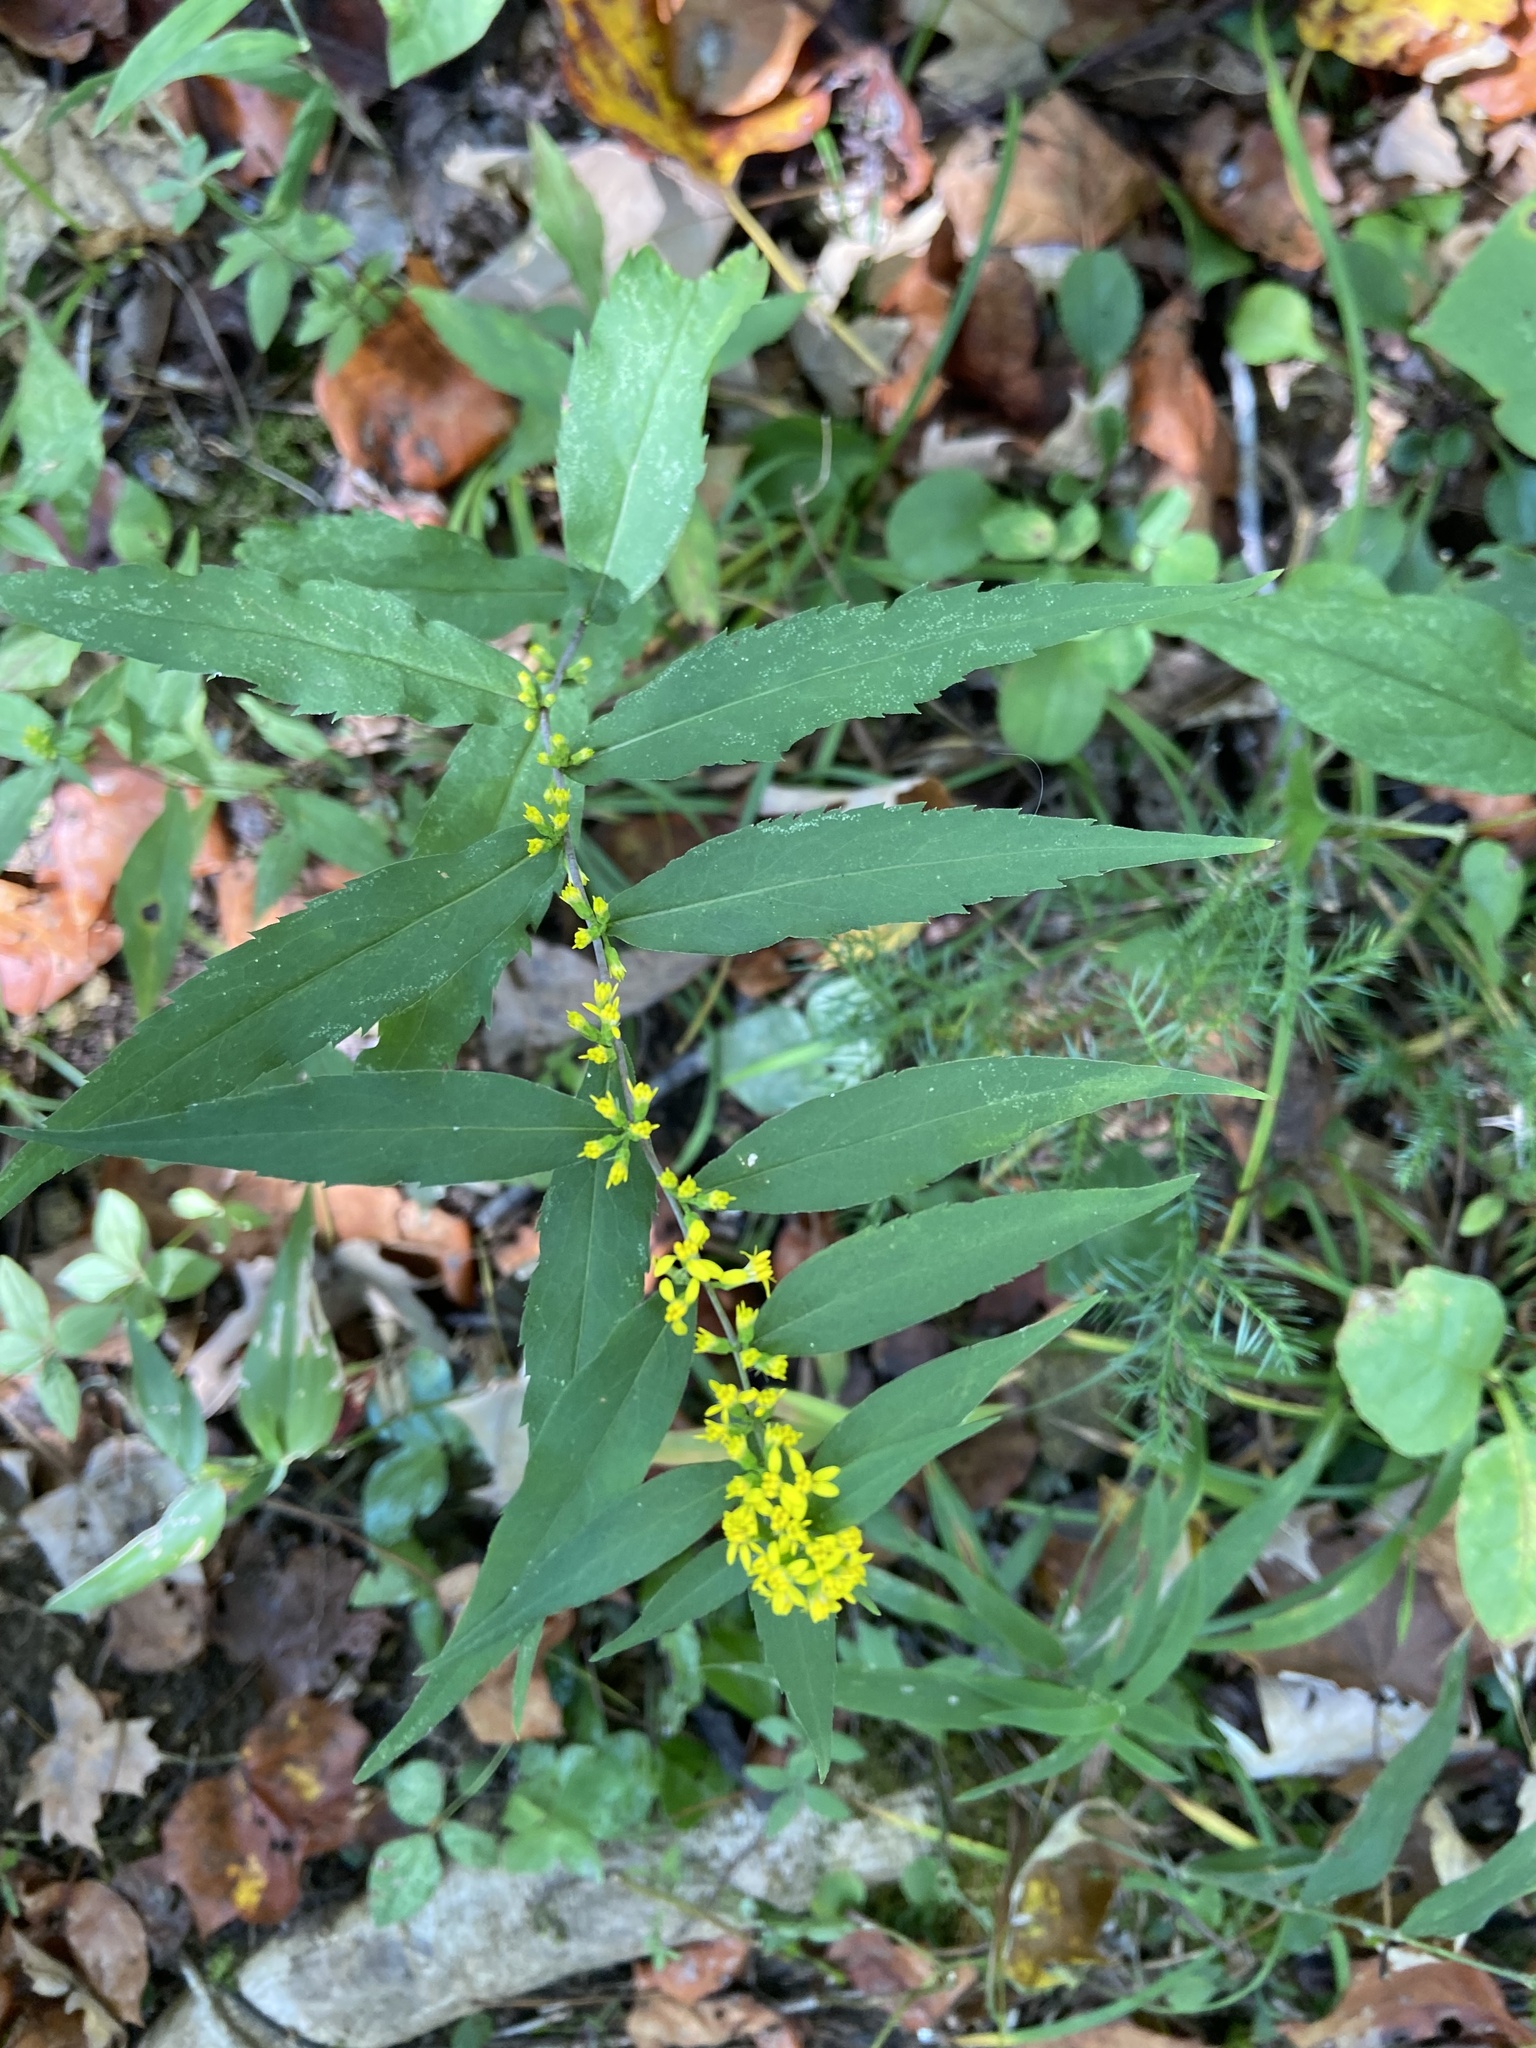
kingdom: Plantae
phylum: Tracheophyta
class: Magnoliopsida
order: Asterales
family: Asteraceae
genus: Solidago
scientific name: Solidago caesia
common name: Woodland goldenrod
